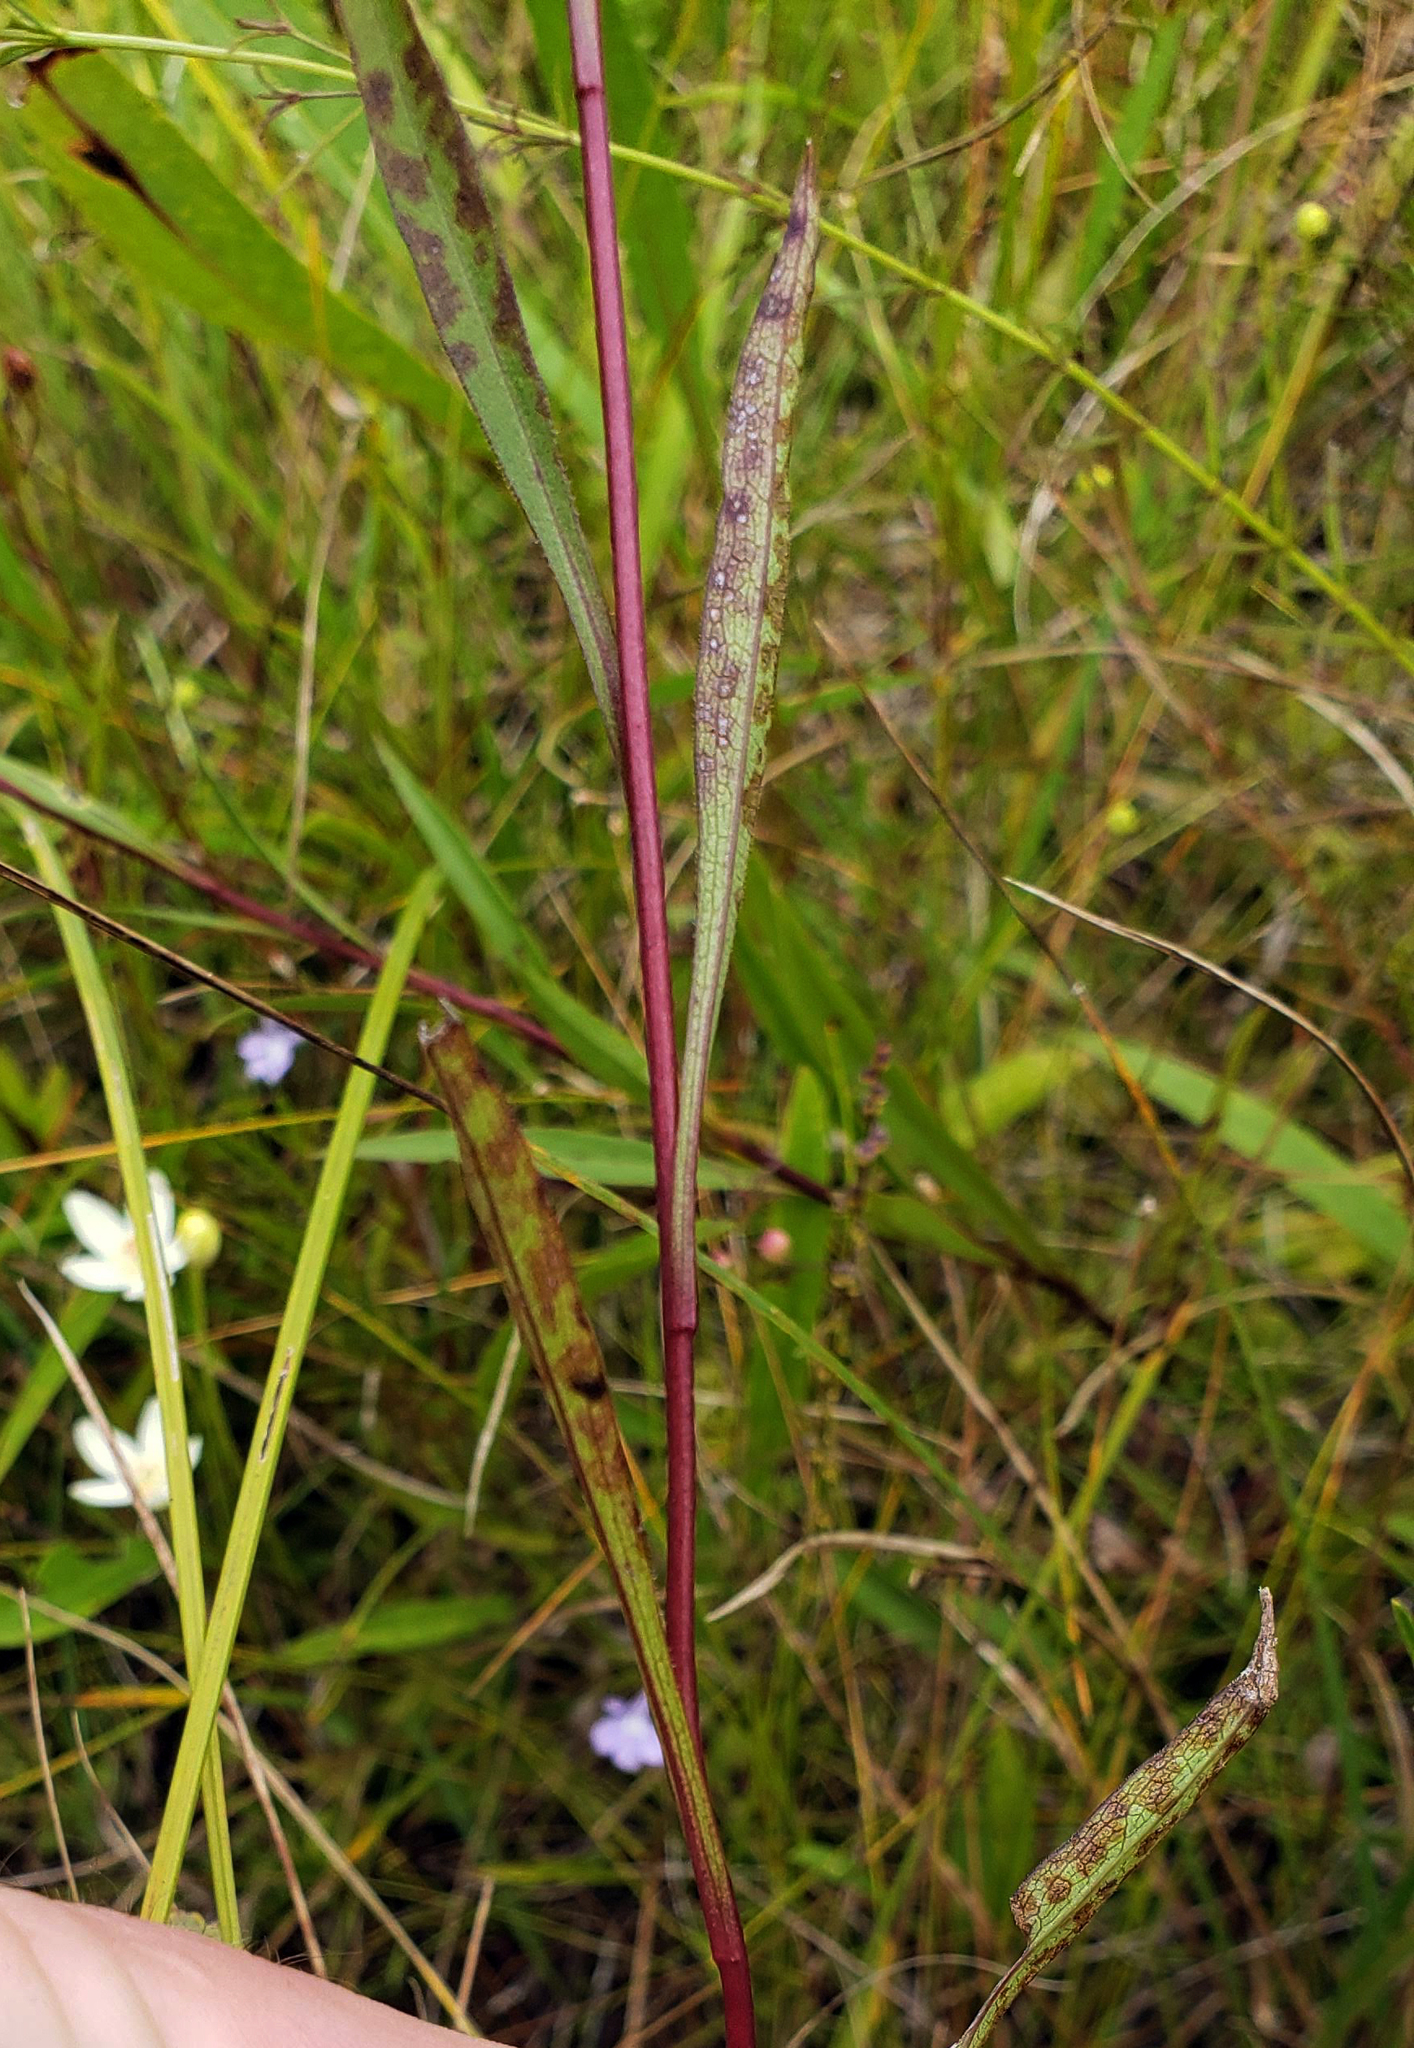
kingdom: Plantae
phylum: Tracheophyta
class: Magnoliopsida
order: Asterales
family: Asteraceae
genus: Solidago
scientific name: Solidago uliginosa
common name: Bog goldenrod
